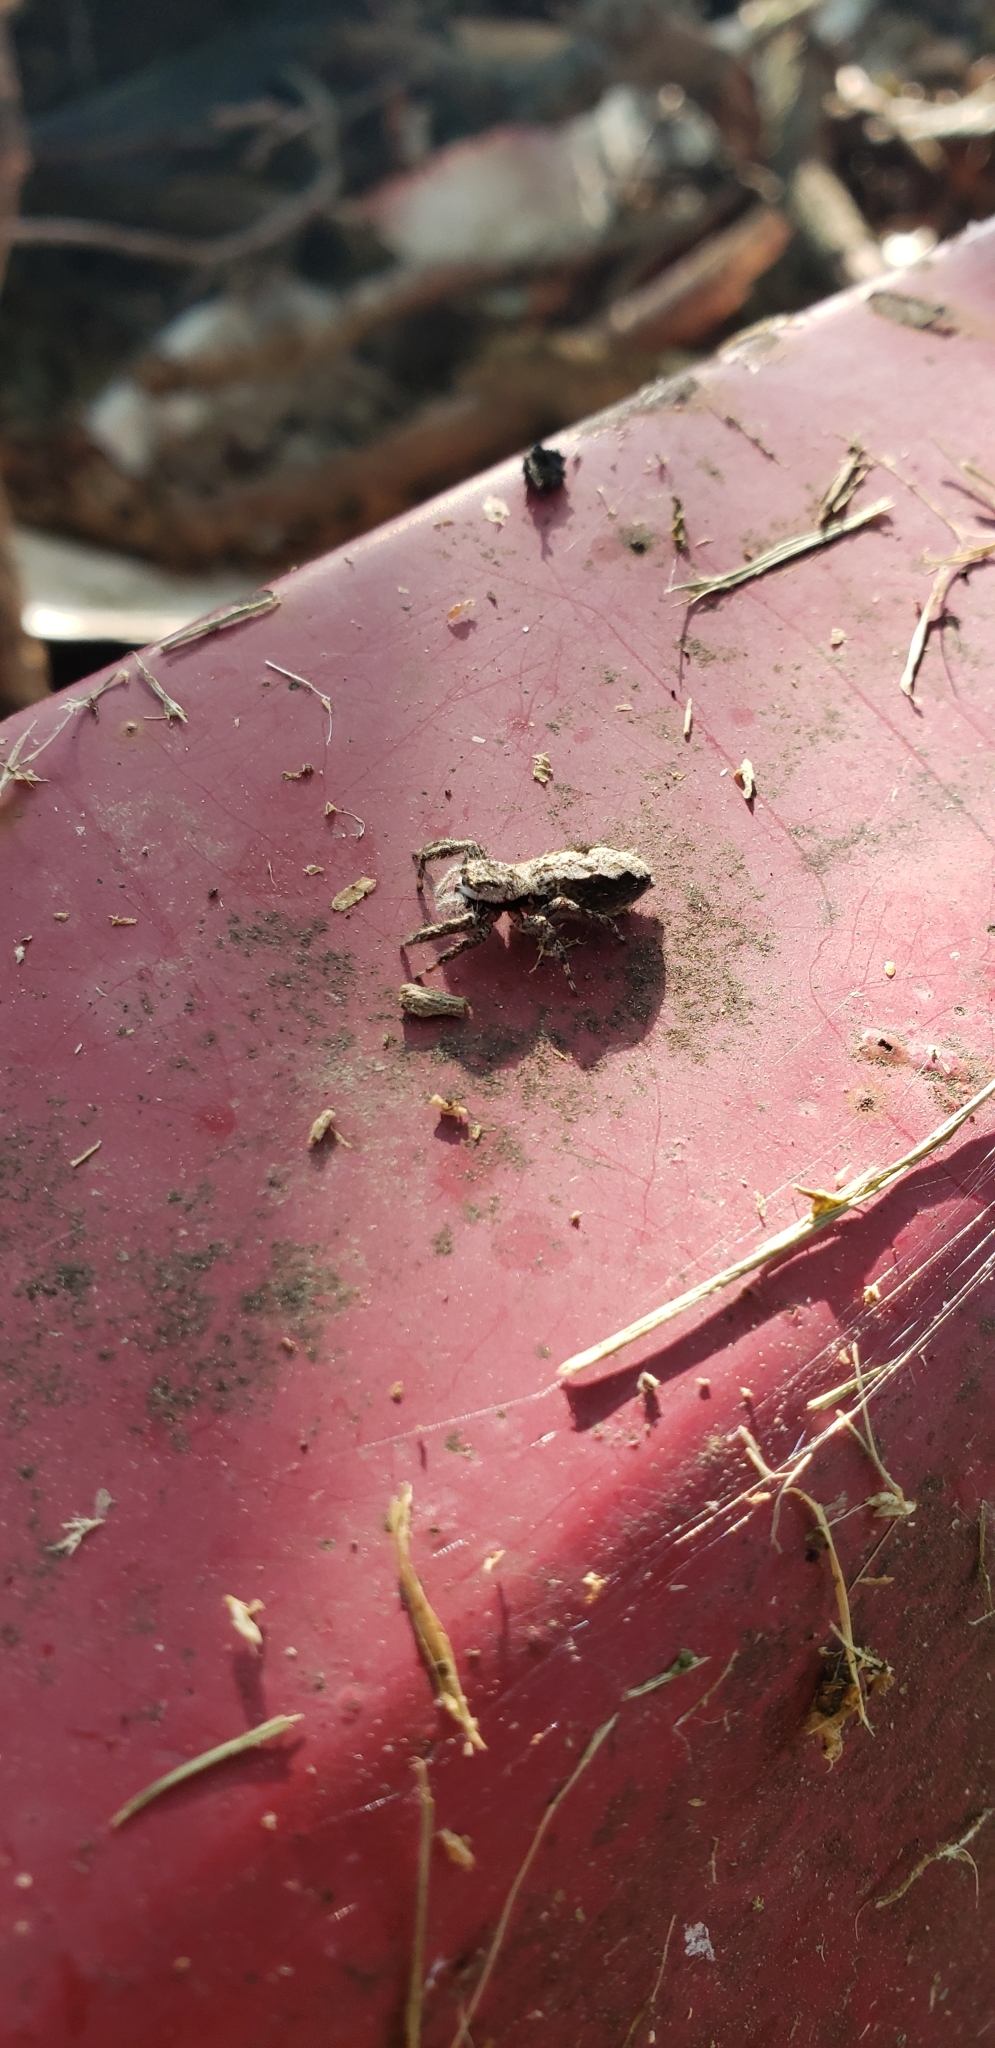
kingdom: Animalia
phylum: Arthropoda
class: Arachnida
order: Araneae
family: Salticidae
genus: Platycryptus
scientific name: Platycryptus undatus
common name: Tan jumping spider
